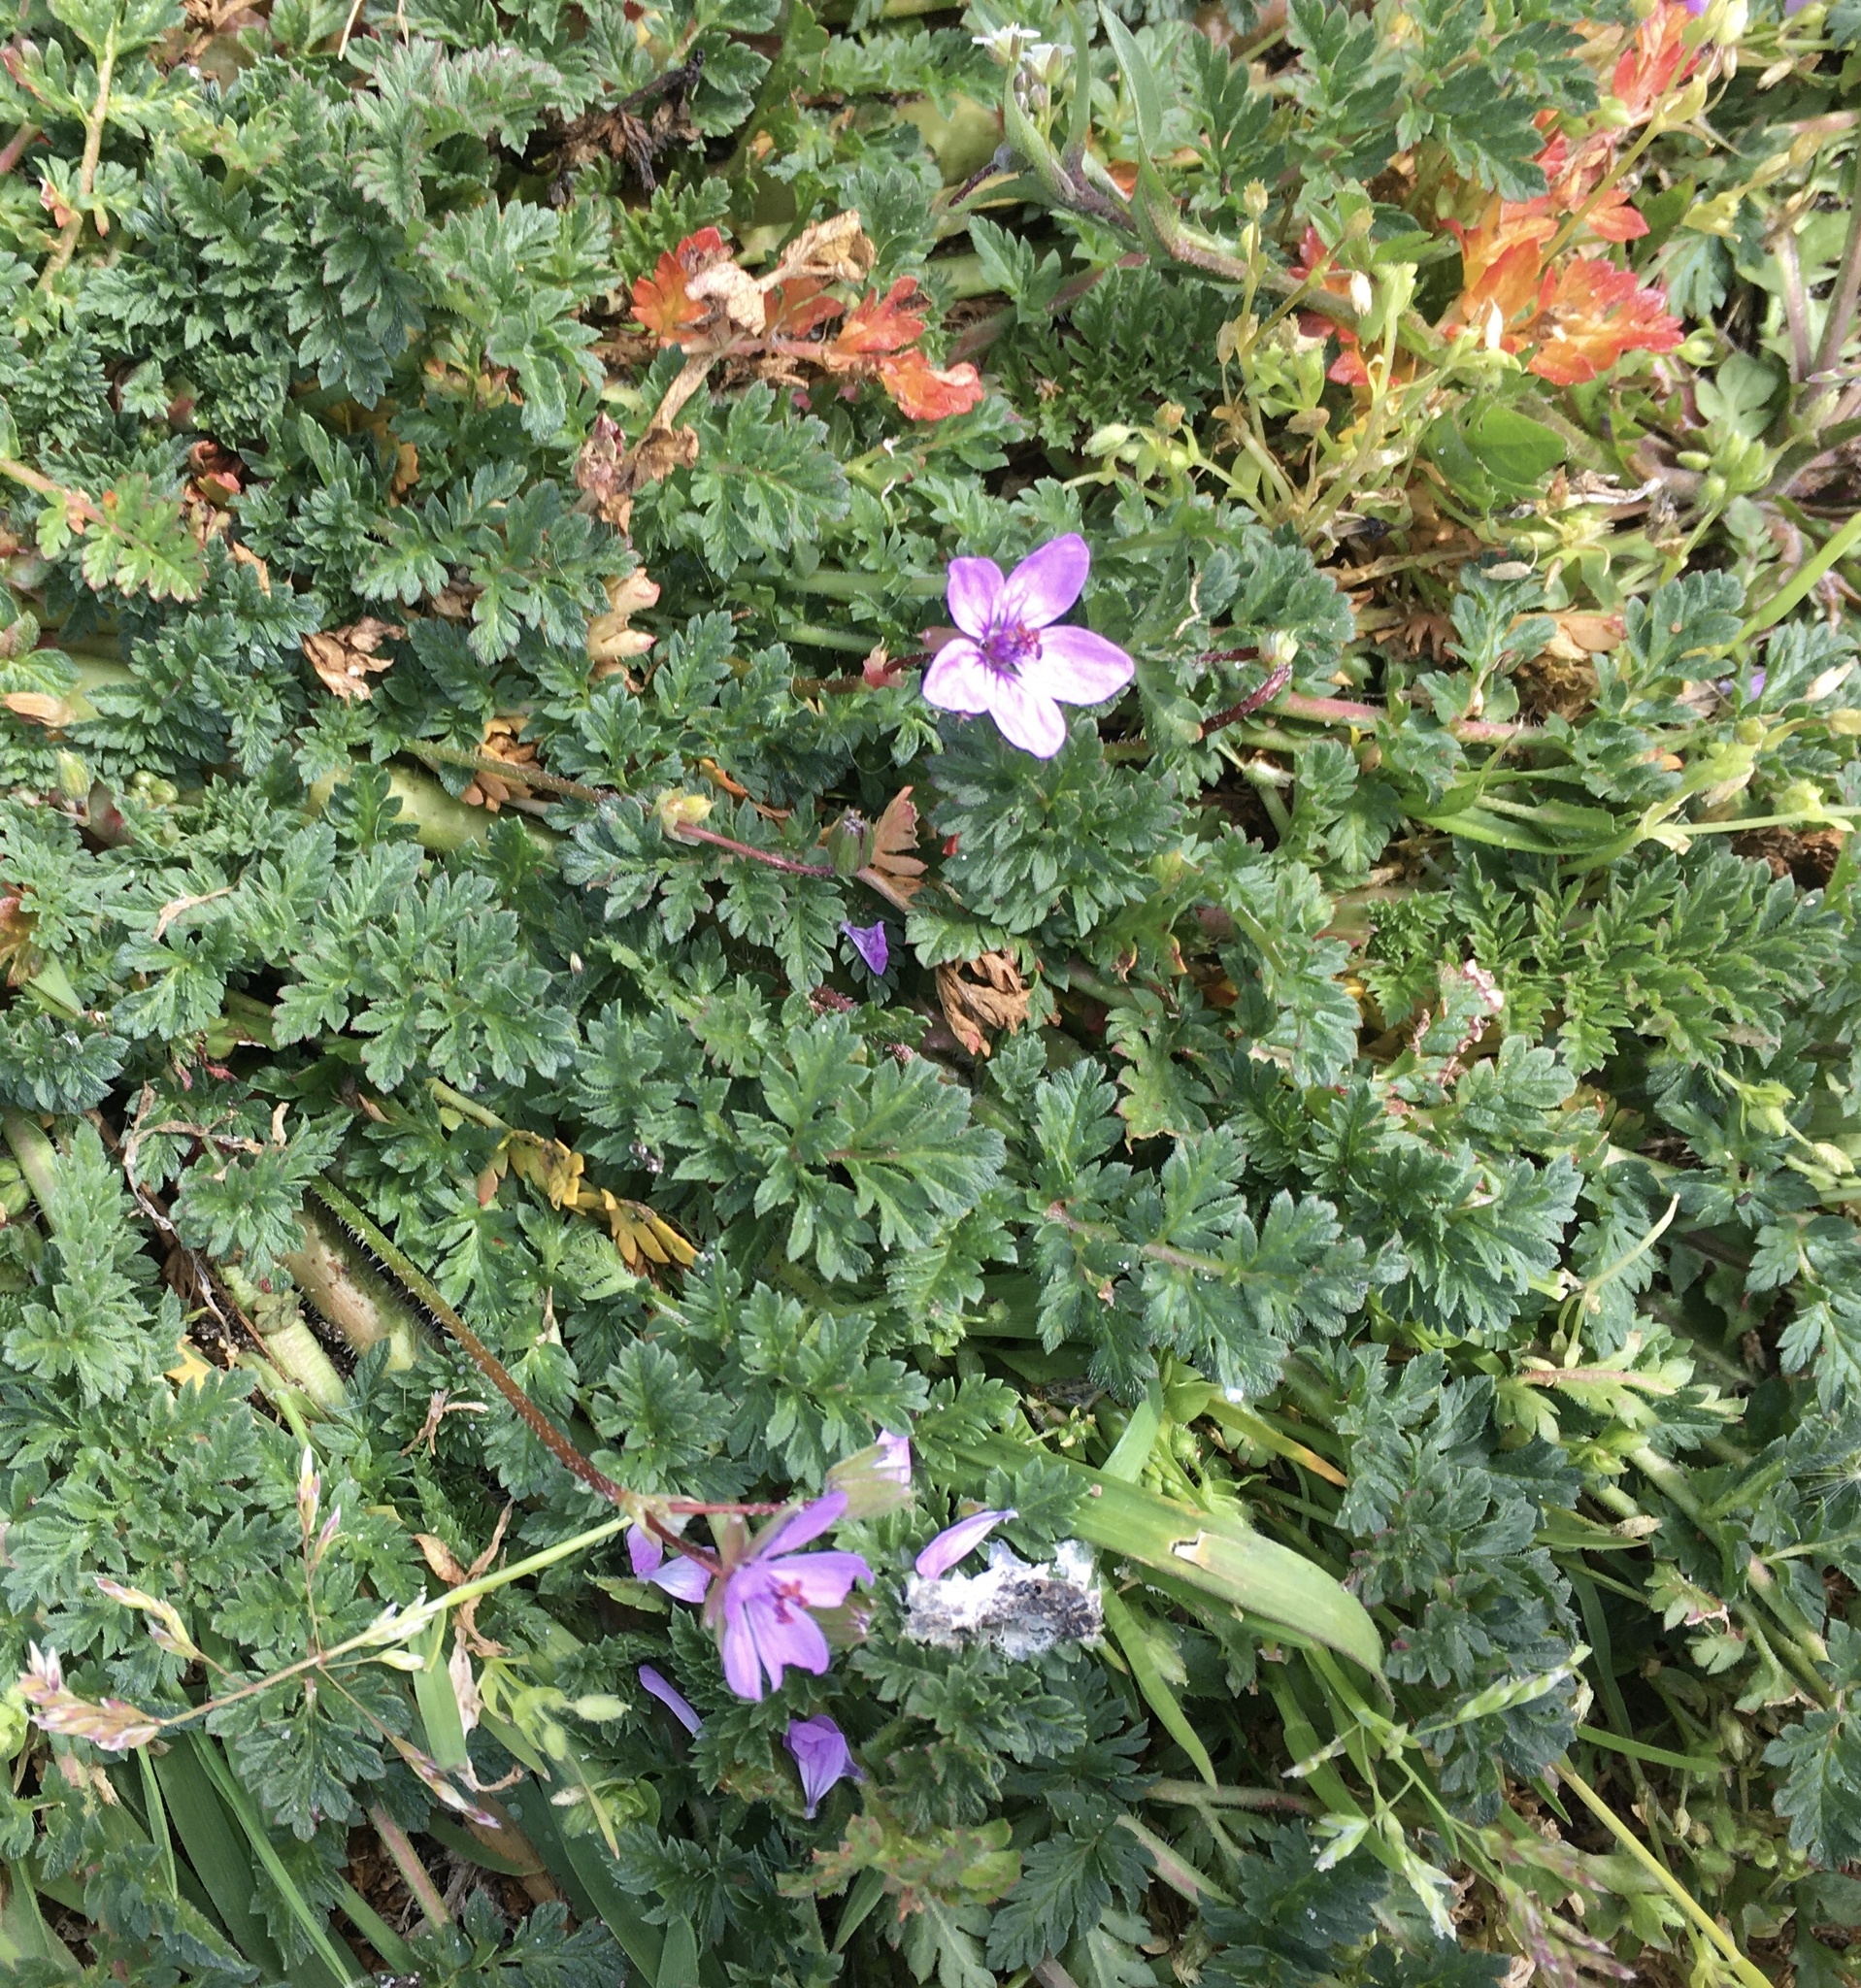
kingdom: Plantae
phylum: Tracheophyta
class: Magnoliopsida
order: Geraniales
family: Geraniaceae
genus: Erodium
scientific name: Erodium cicutarium
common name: Common stork's-bill
